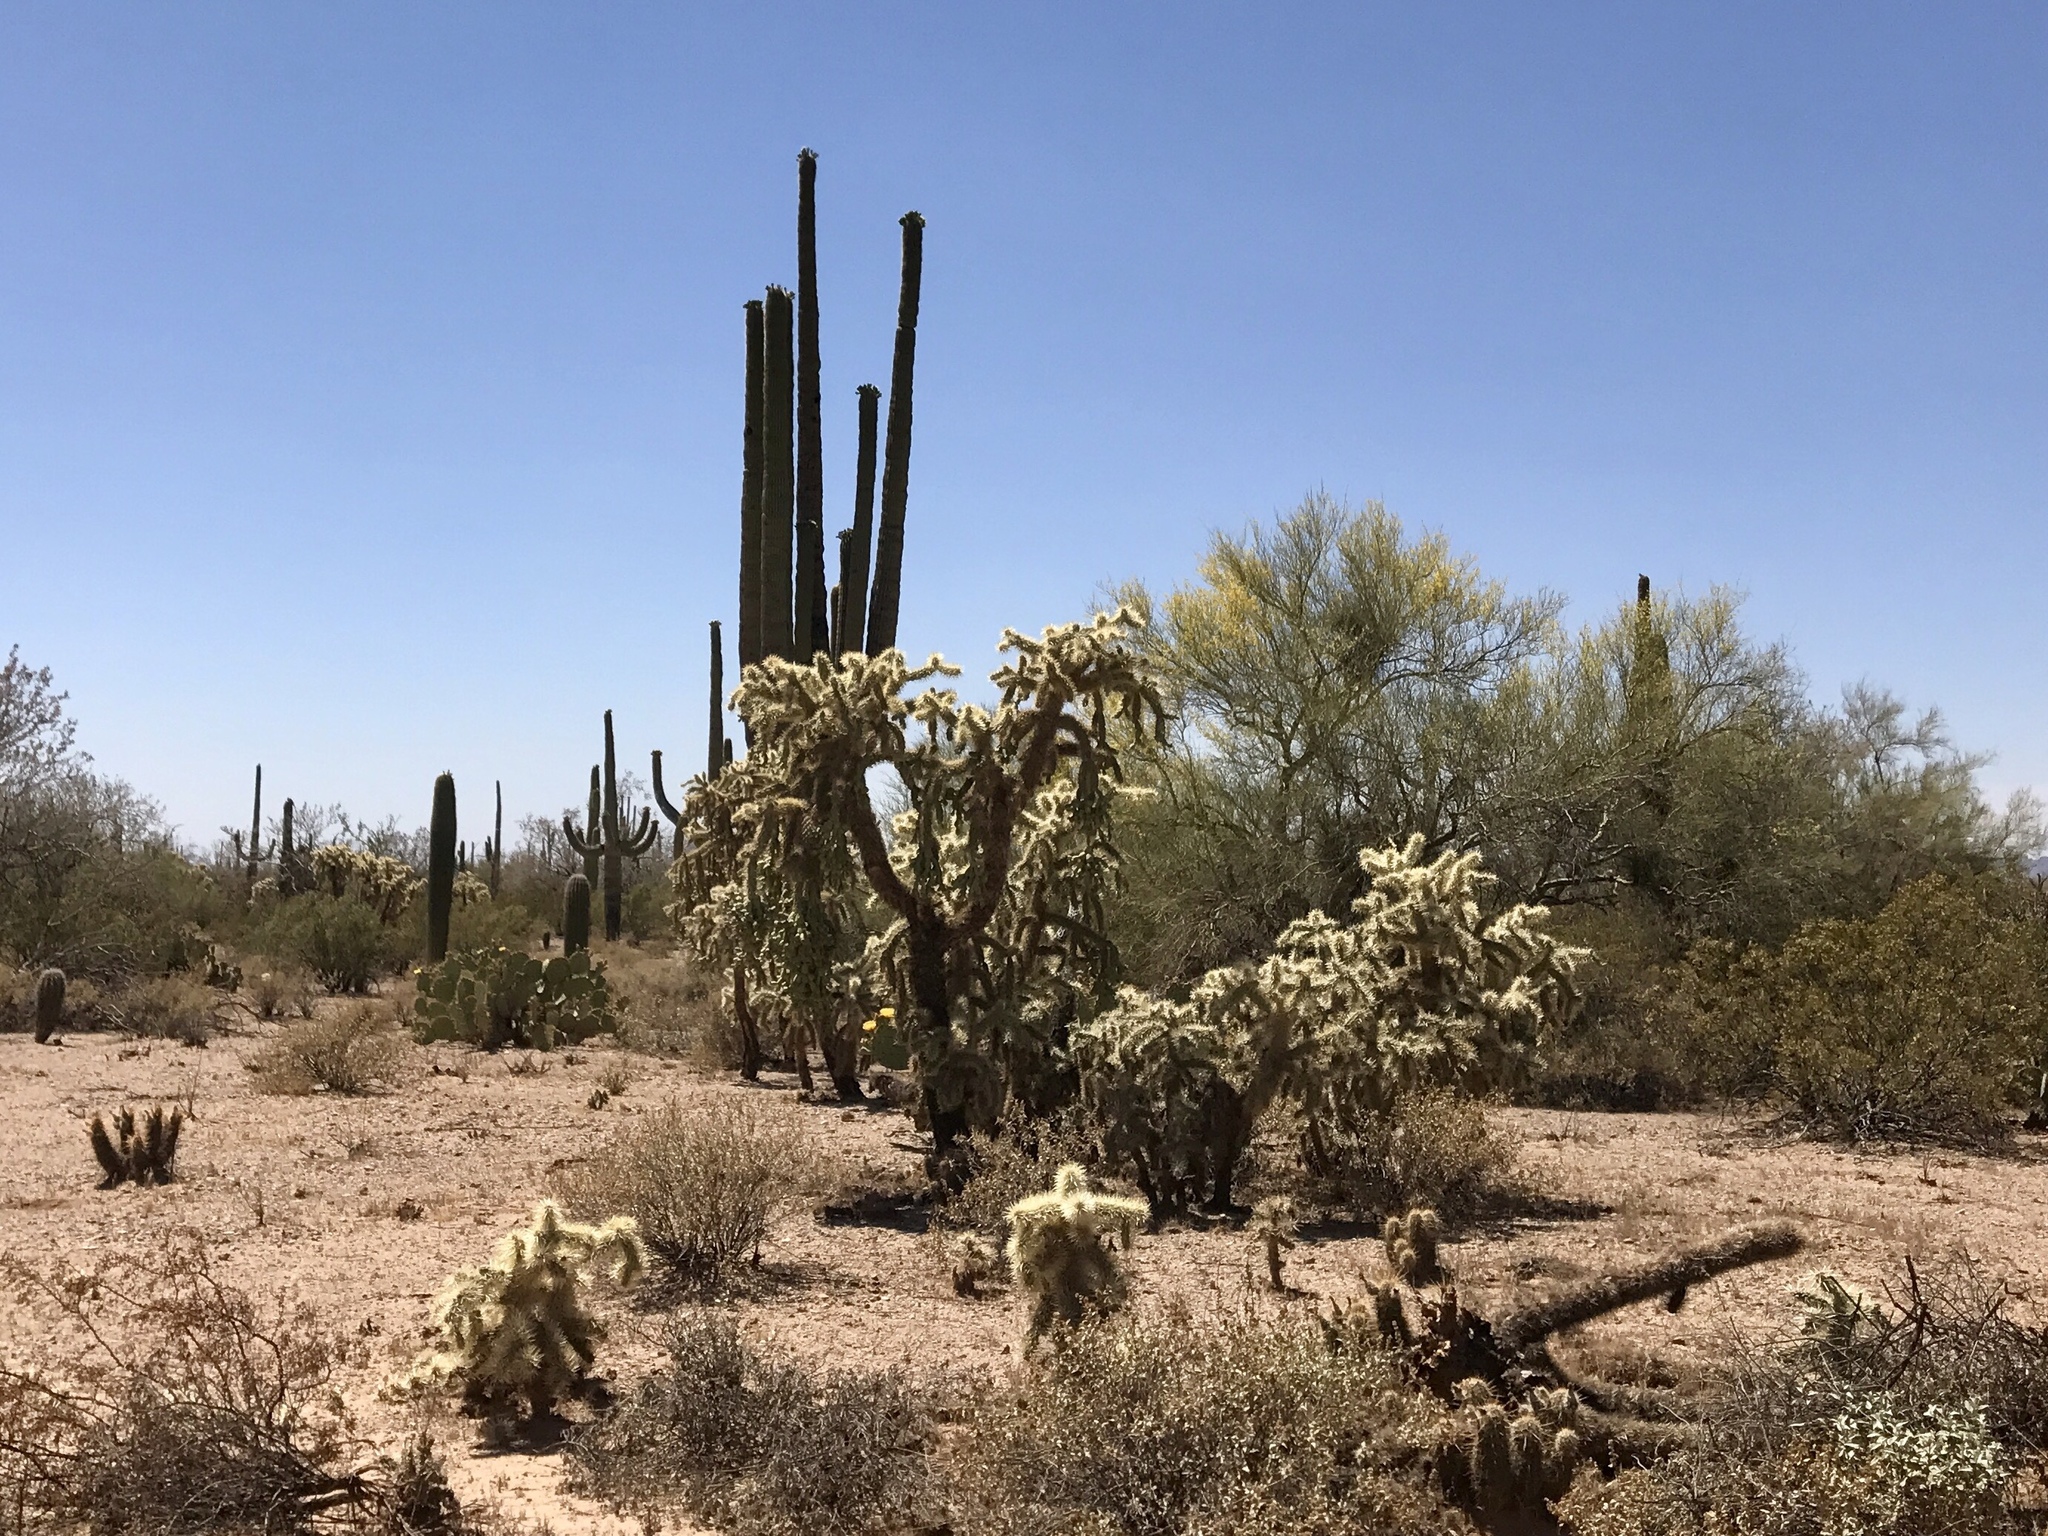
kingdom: Plantae
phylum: Tracheophyta
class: Magnoliopsida
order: Caryophyllales
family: Cactaceae
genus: Cylindropuntia
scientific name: Cylindropuntia fulgida
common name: Jumping cholla
